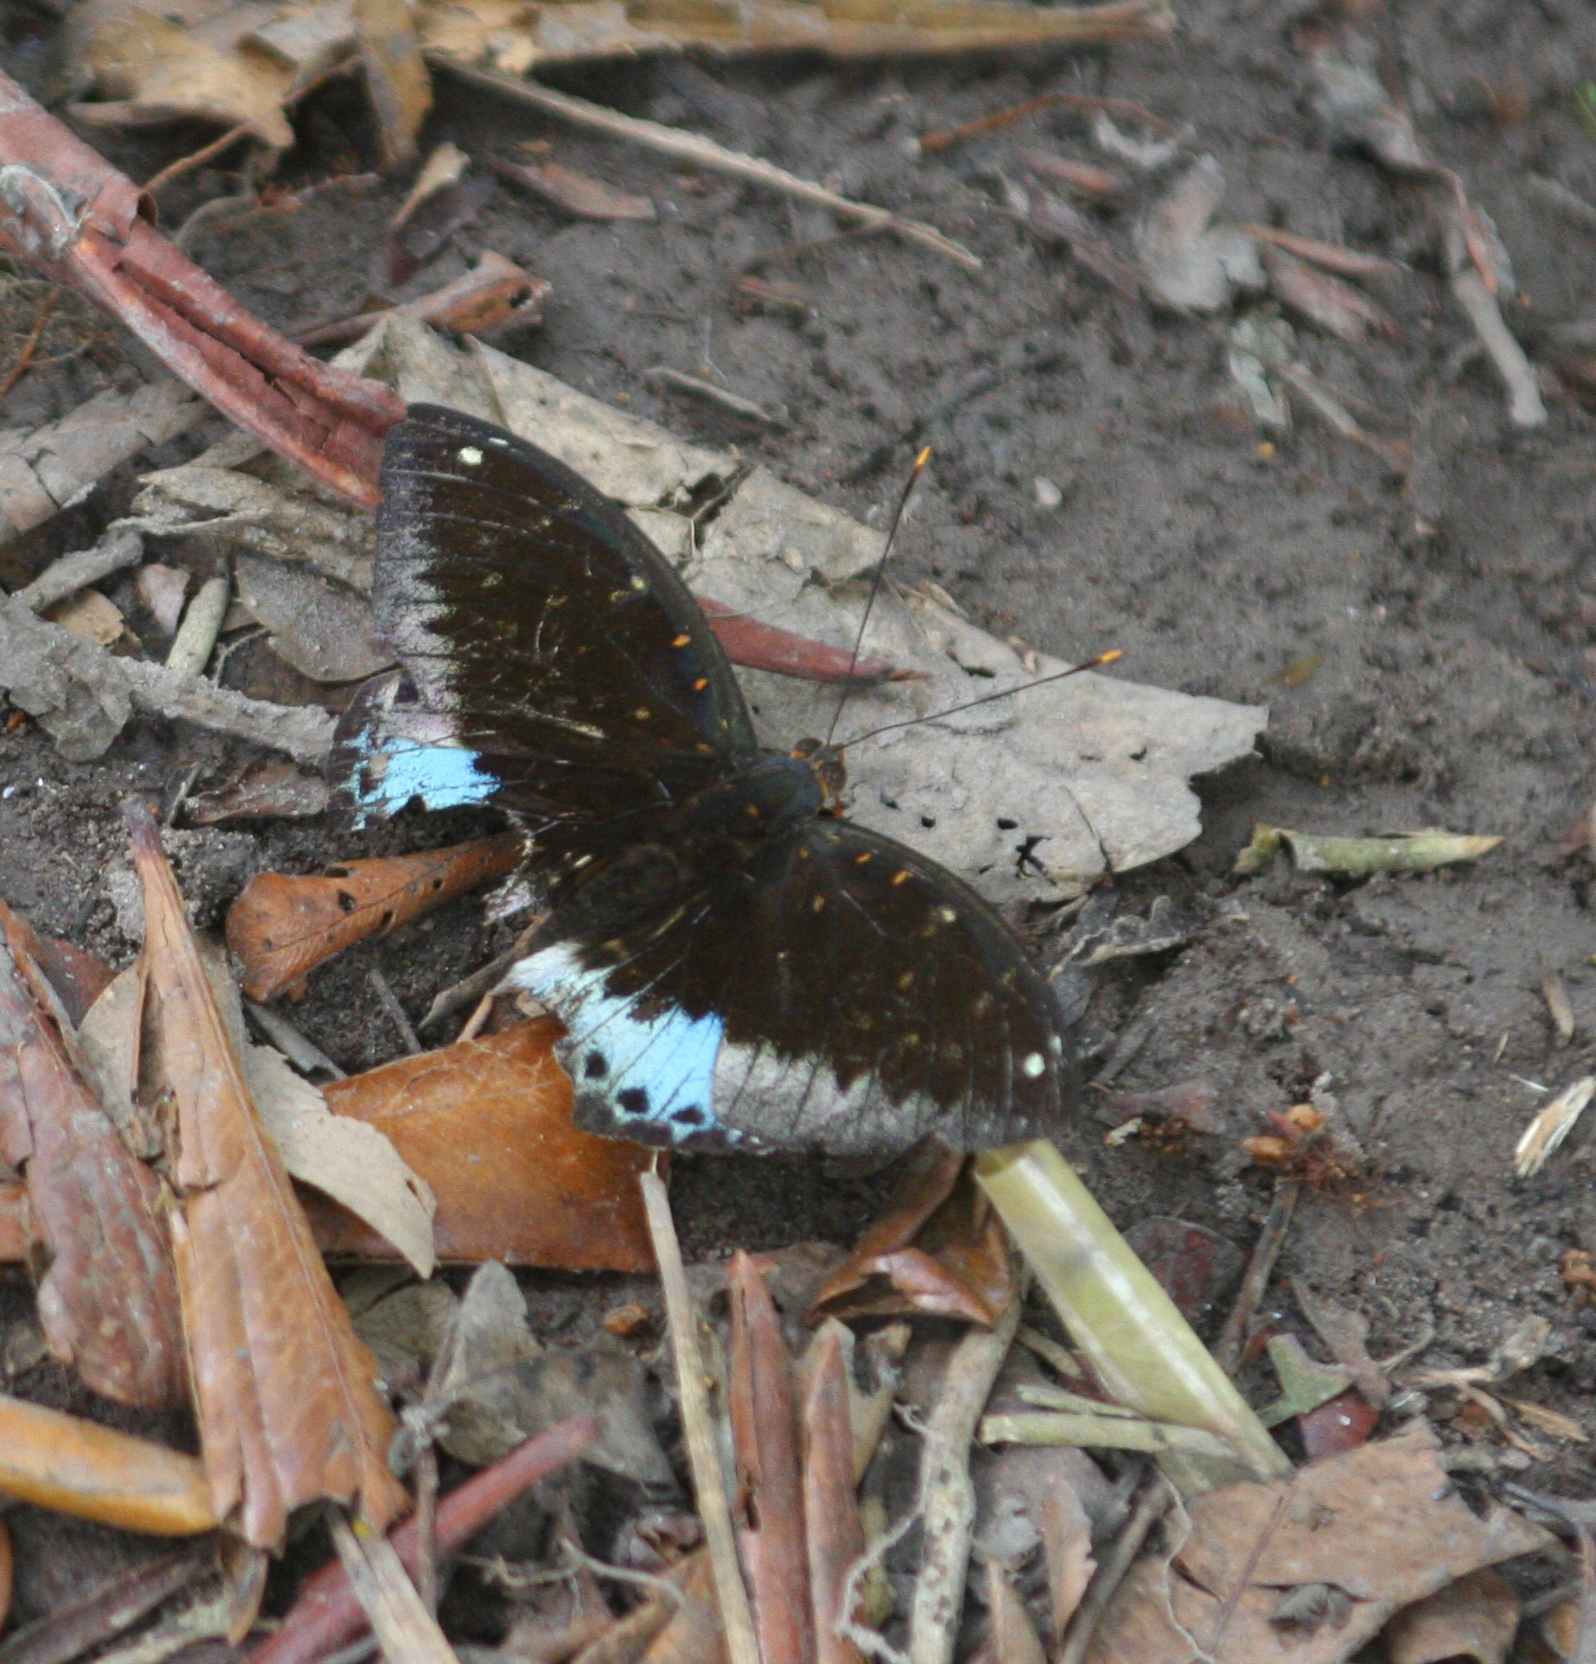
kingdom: Animalia
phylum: Arthropoda
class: Insecta
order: Lepidoptera
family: Nymphalidae
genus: Lexias
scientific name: Lexias pardalis
